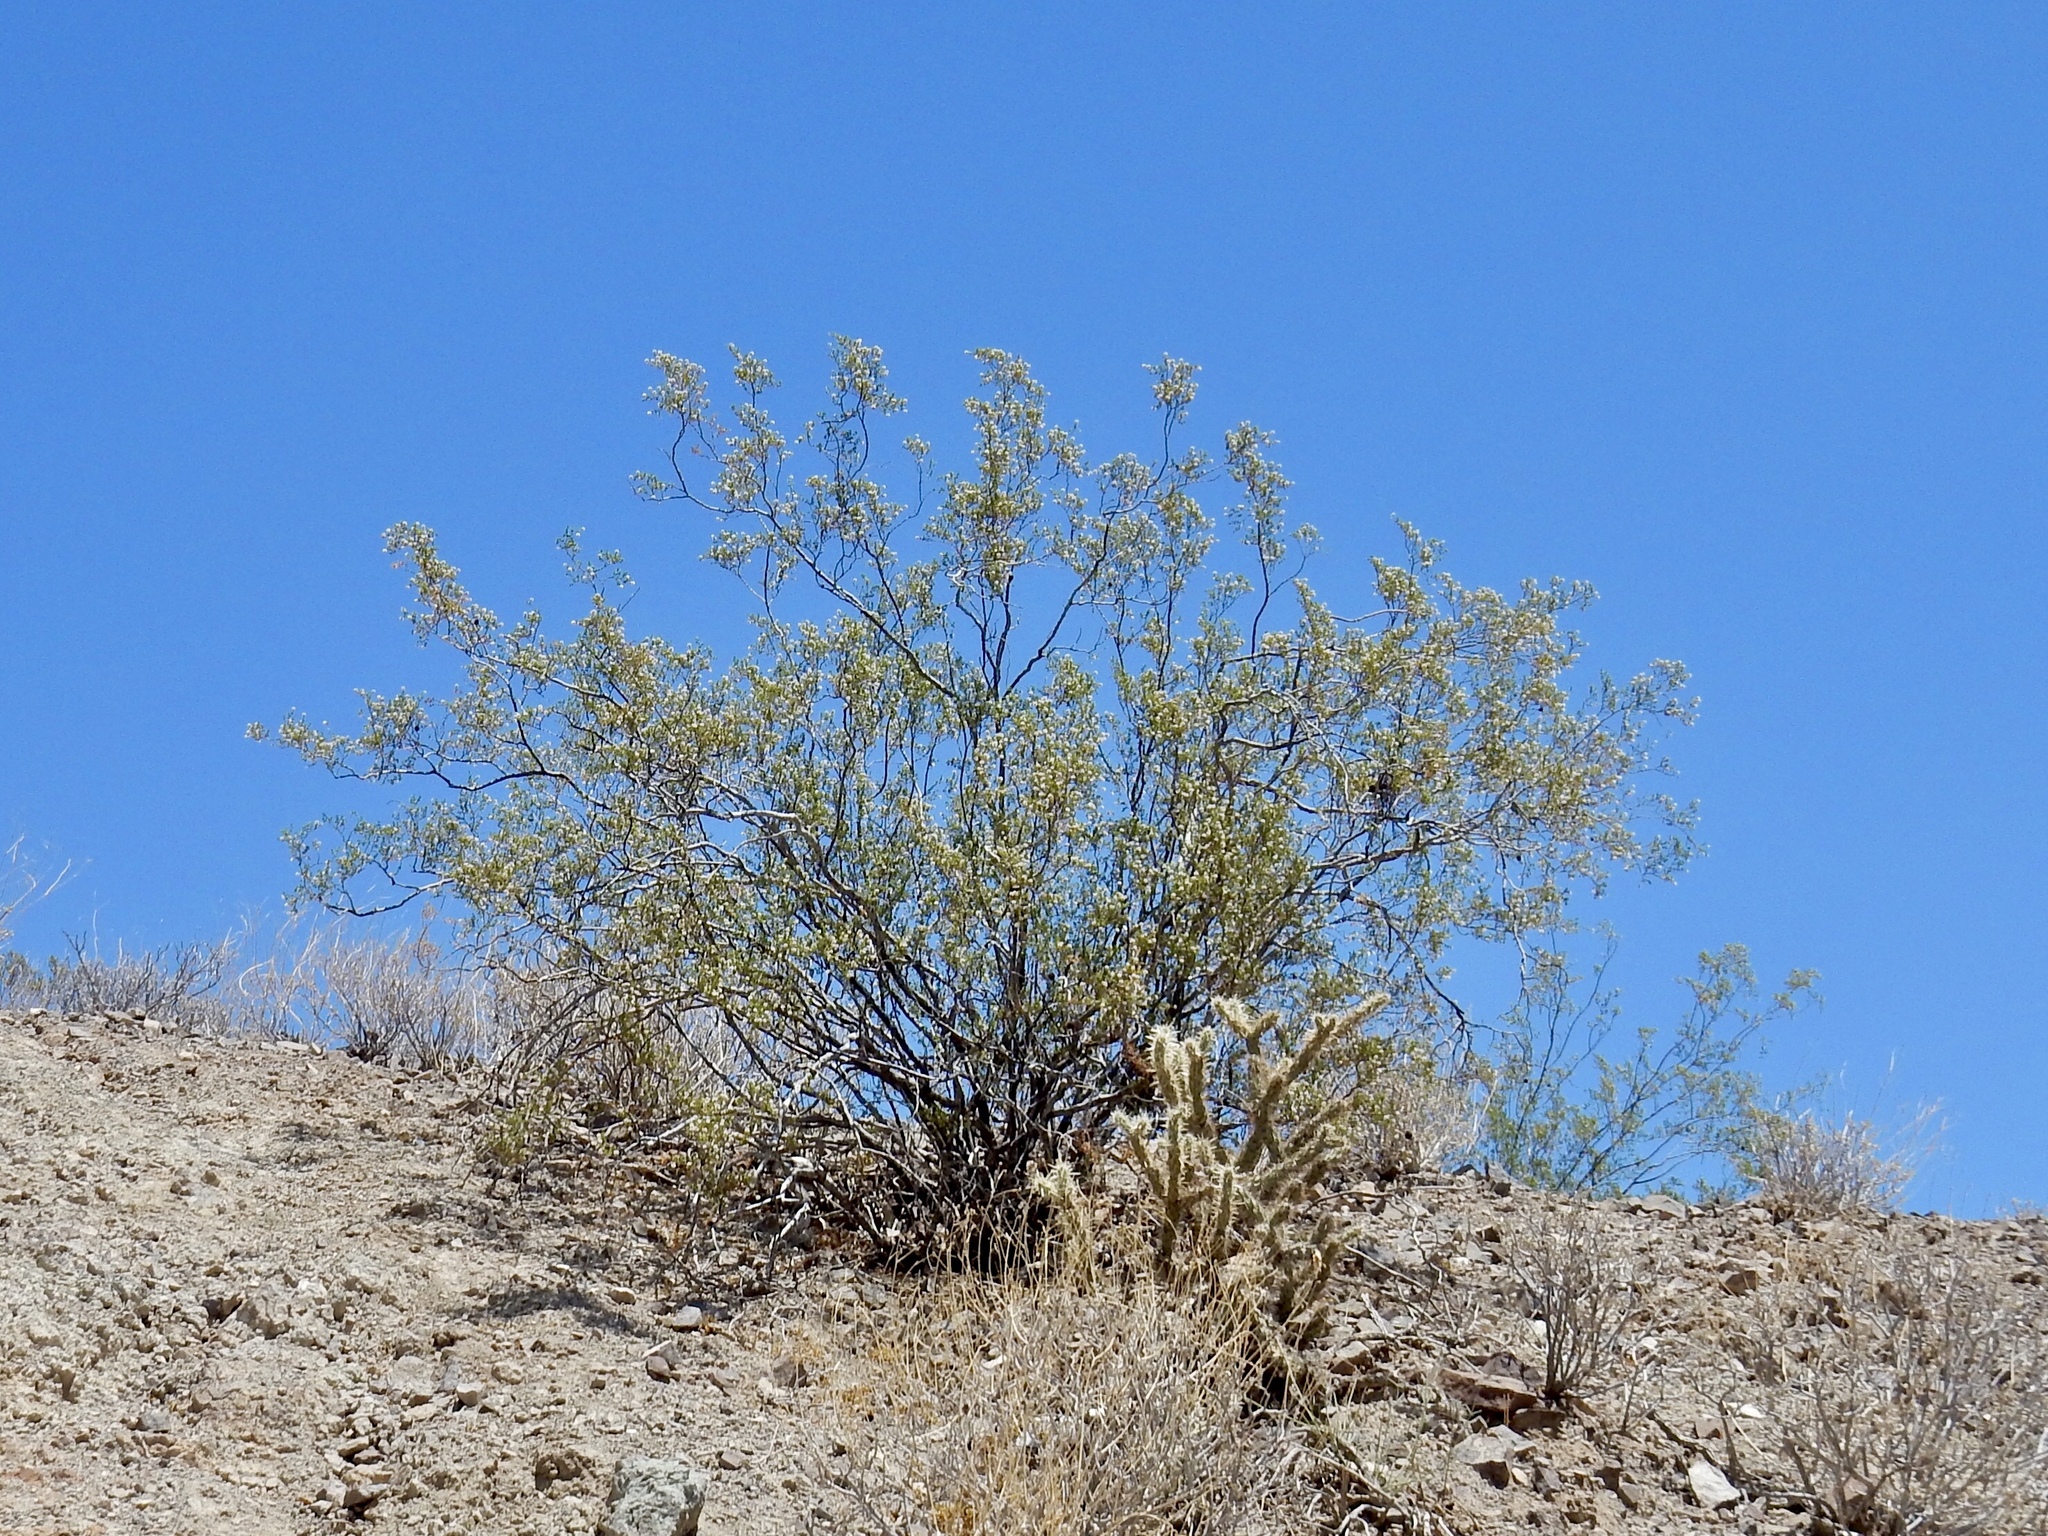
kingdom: Plantae
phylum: Tracheophyta
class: Magnoliopsida
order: Zygophyllales
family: Zygophyllaceae
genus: Larrea
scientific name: Larrea tridentata
